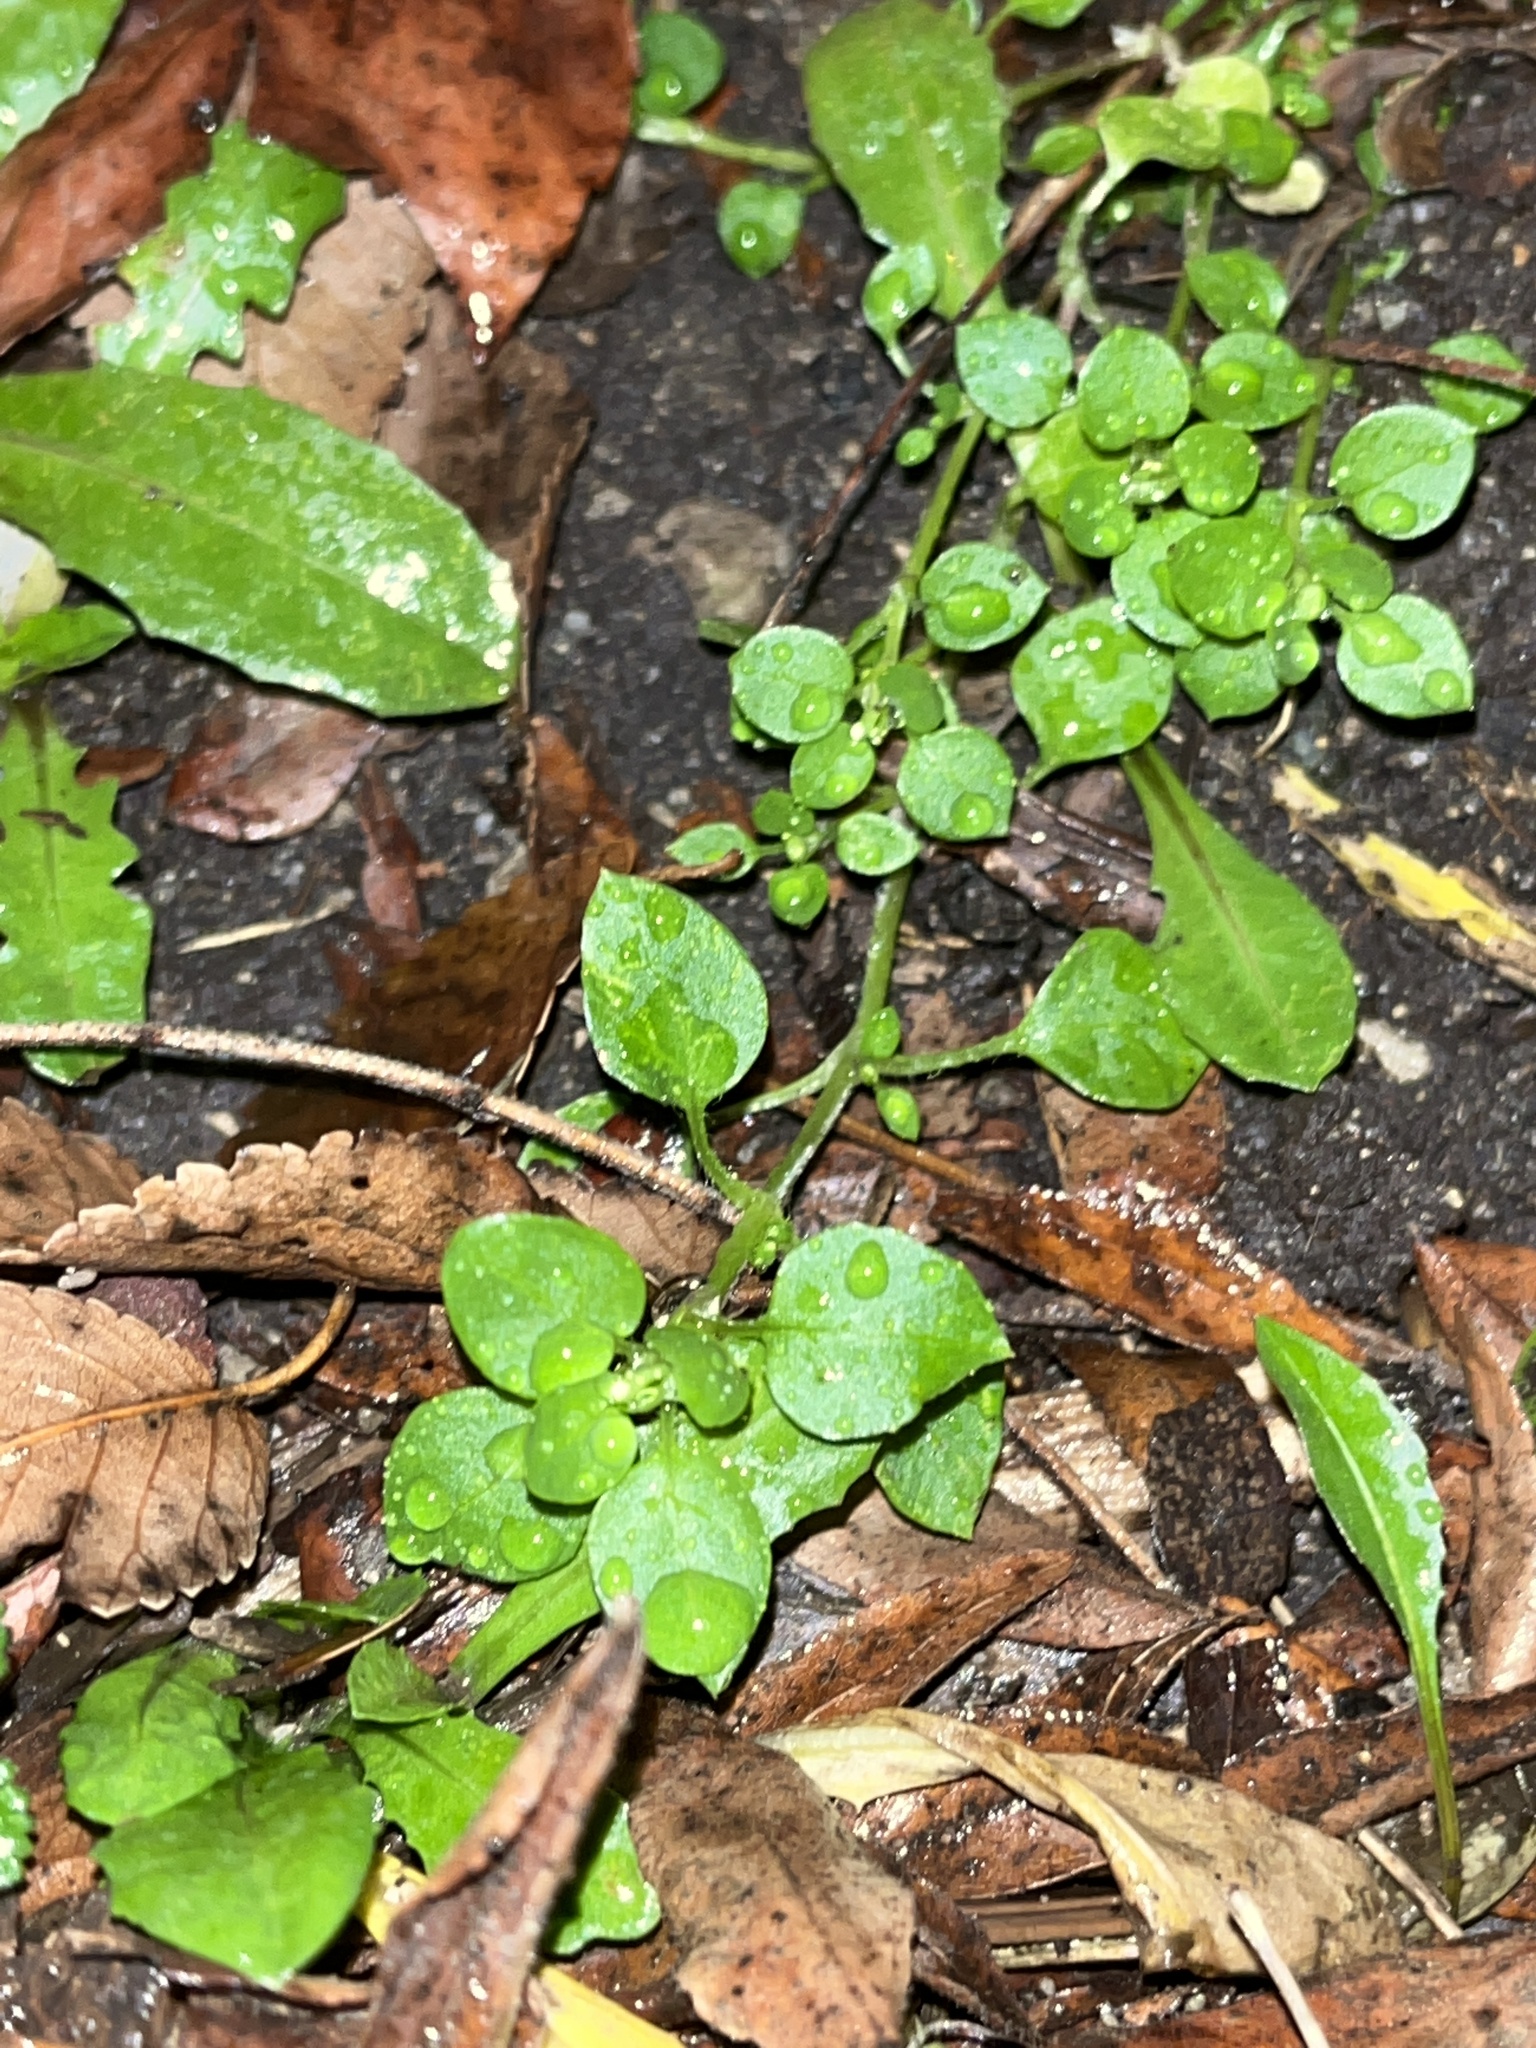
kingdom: Plantae
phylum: Tracheophyta
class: Magnoliopsida
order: Caryophyllales
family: Caryophyllaceae
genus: Stellaria
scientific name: Stellaria media
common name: Common chickweed
